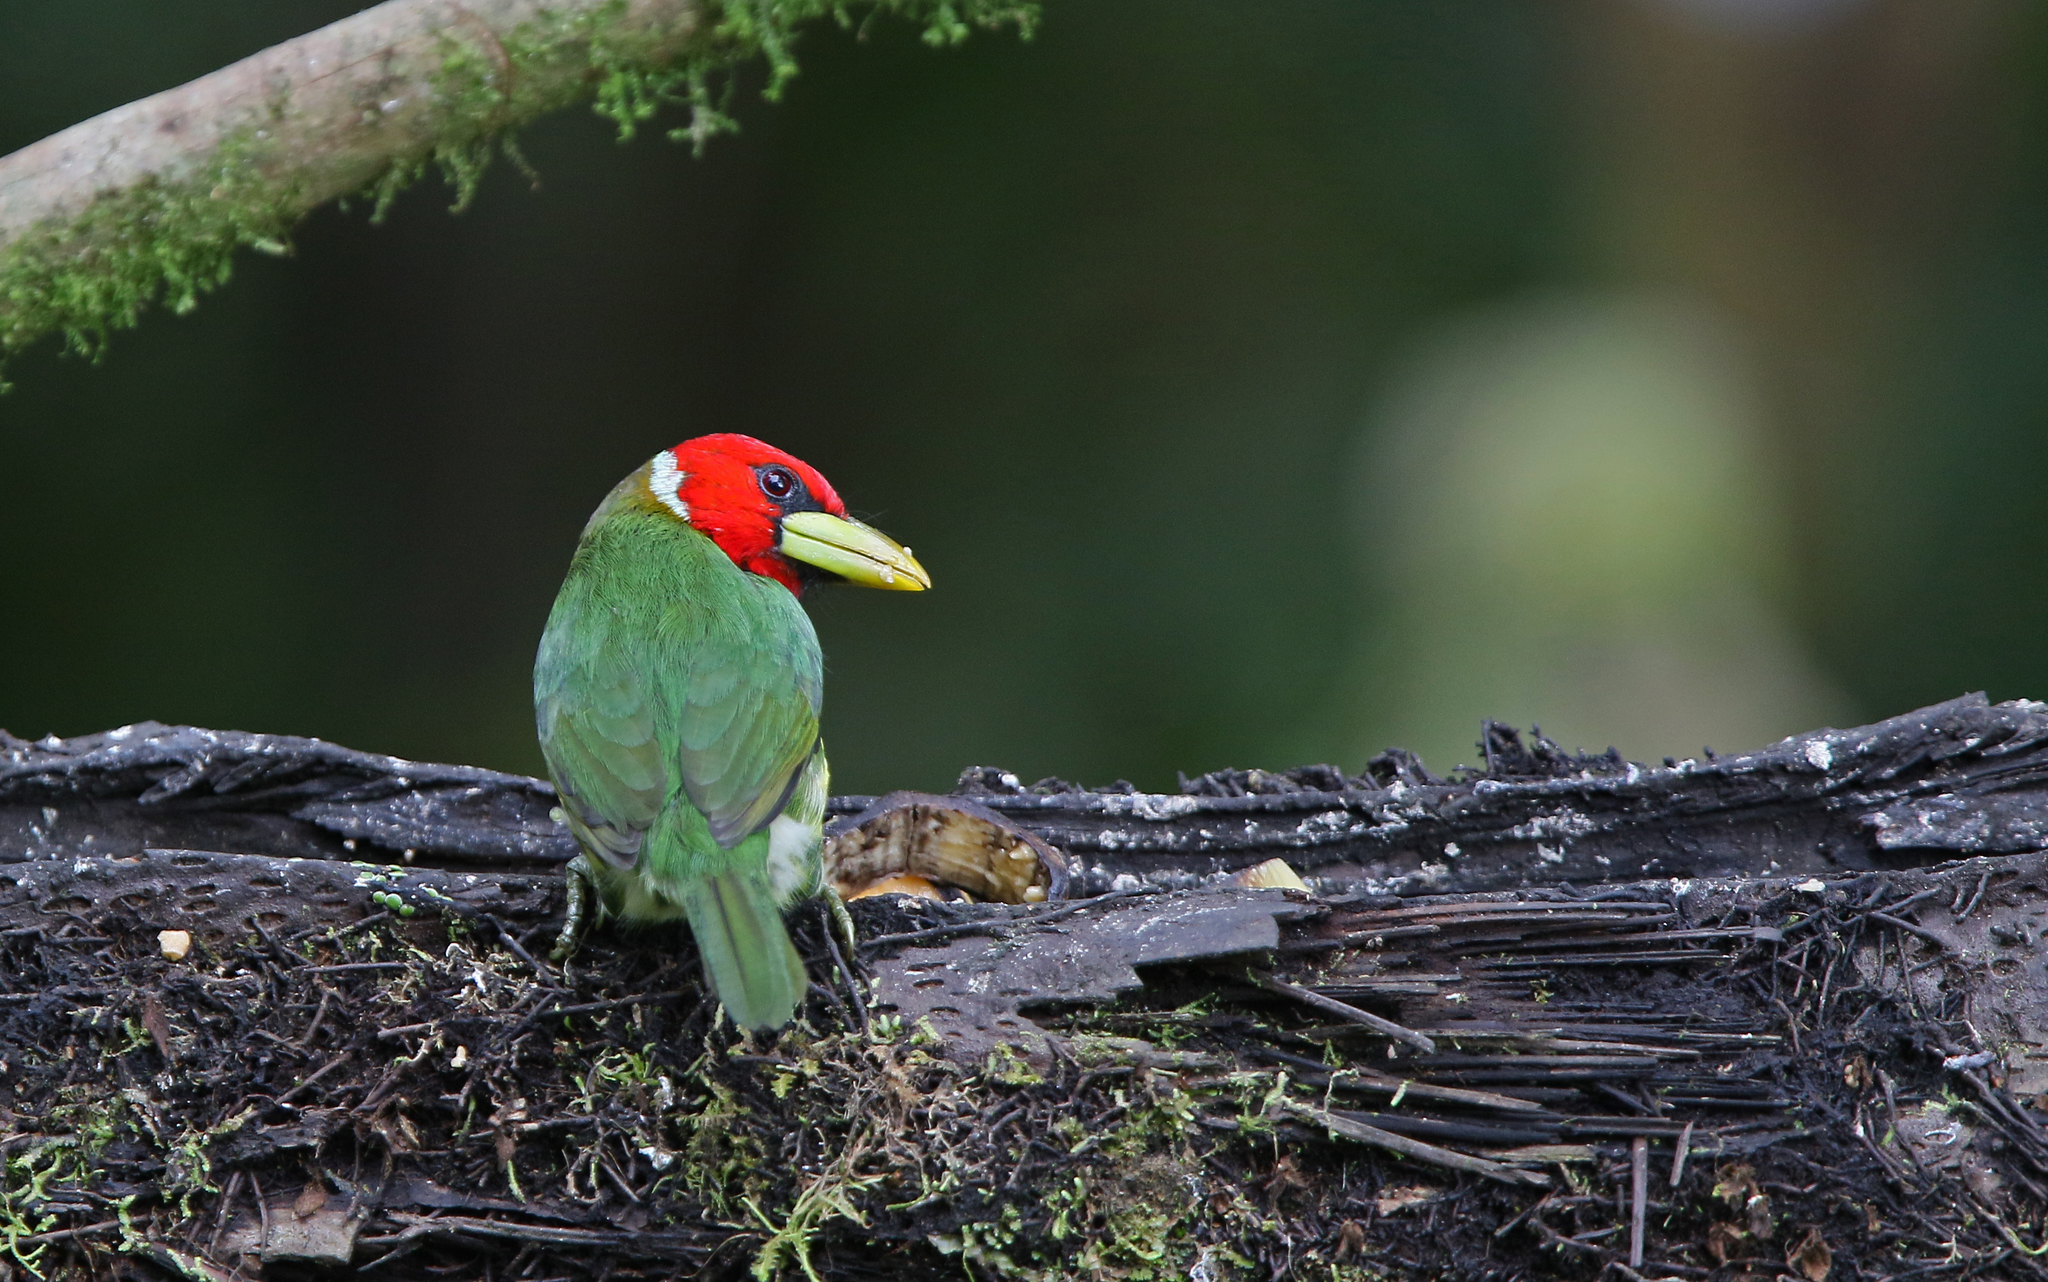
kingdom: Animalia
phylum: Chordata
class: Aves
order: Piciformes
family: Capitonidae
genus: Eubucco
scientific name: Eubucco bourcierii
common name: Red-headed barbet
